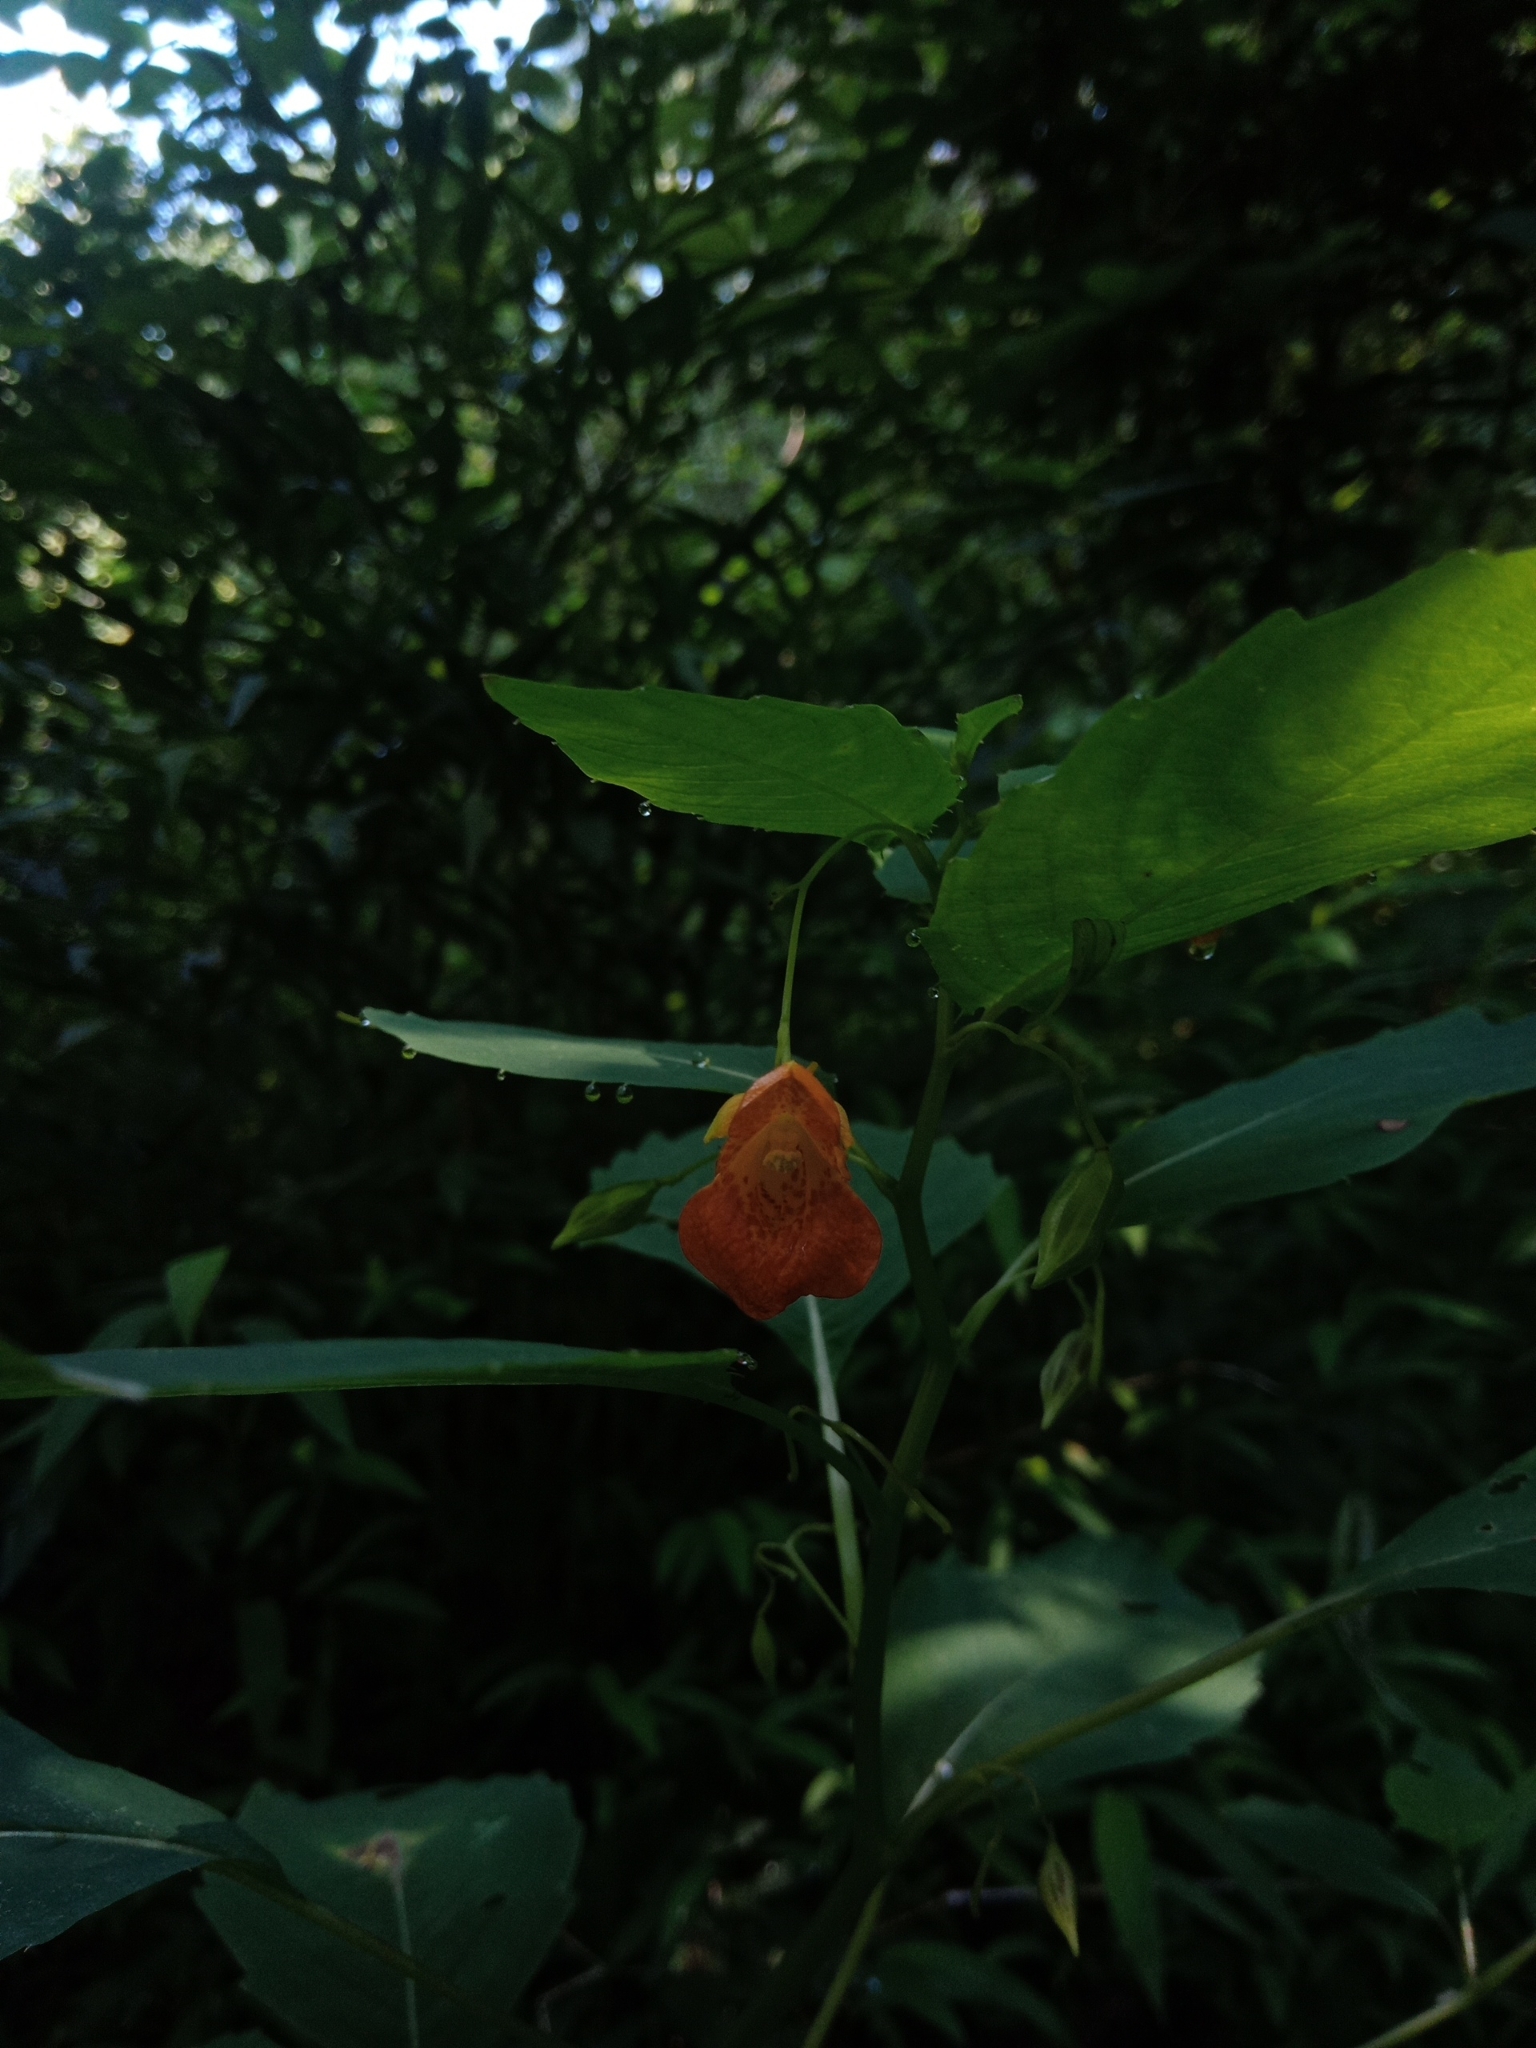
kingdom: Plantae
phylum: Tracheophyta
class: Magnoliopsida
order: Ericales
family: Balsaminaceae
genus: Impatiens
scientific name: Impatiens capensis
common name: Orange balsam
